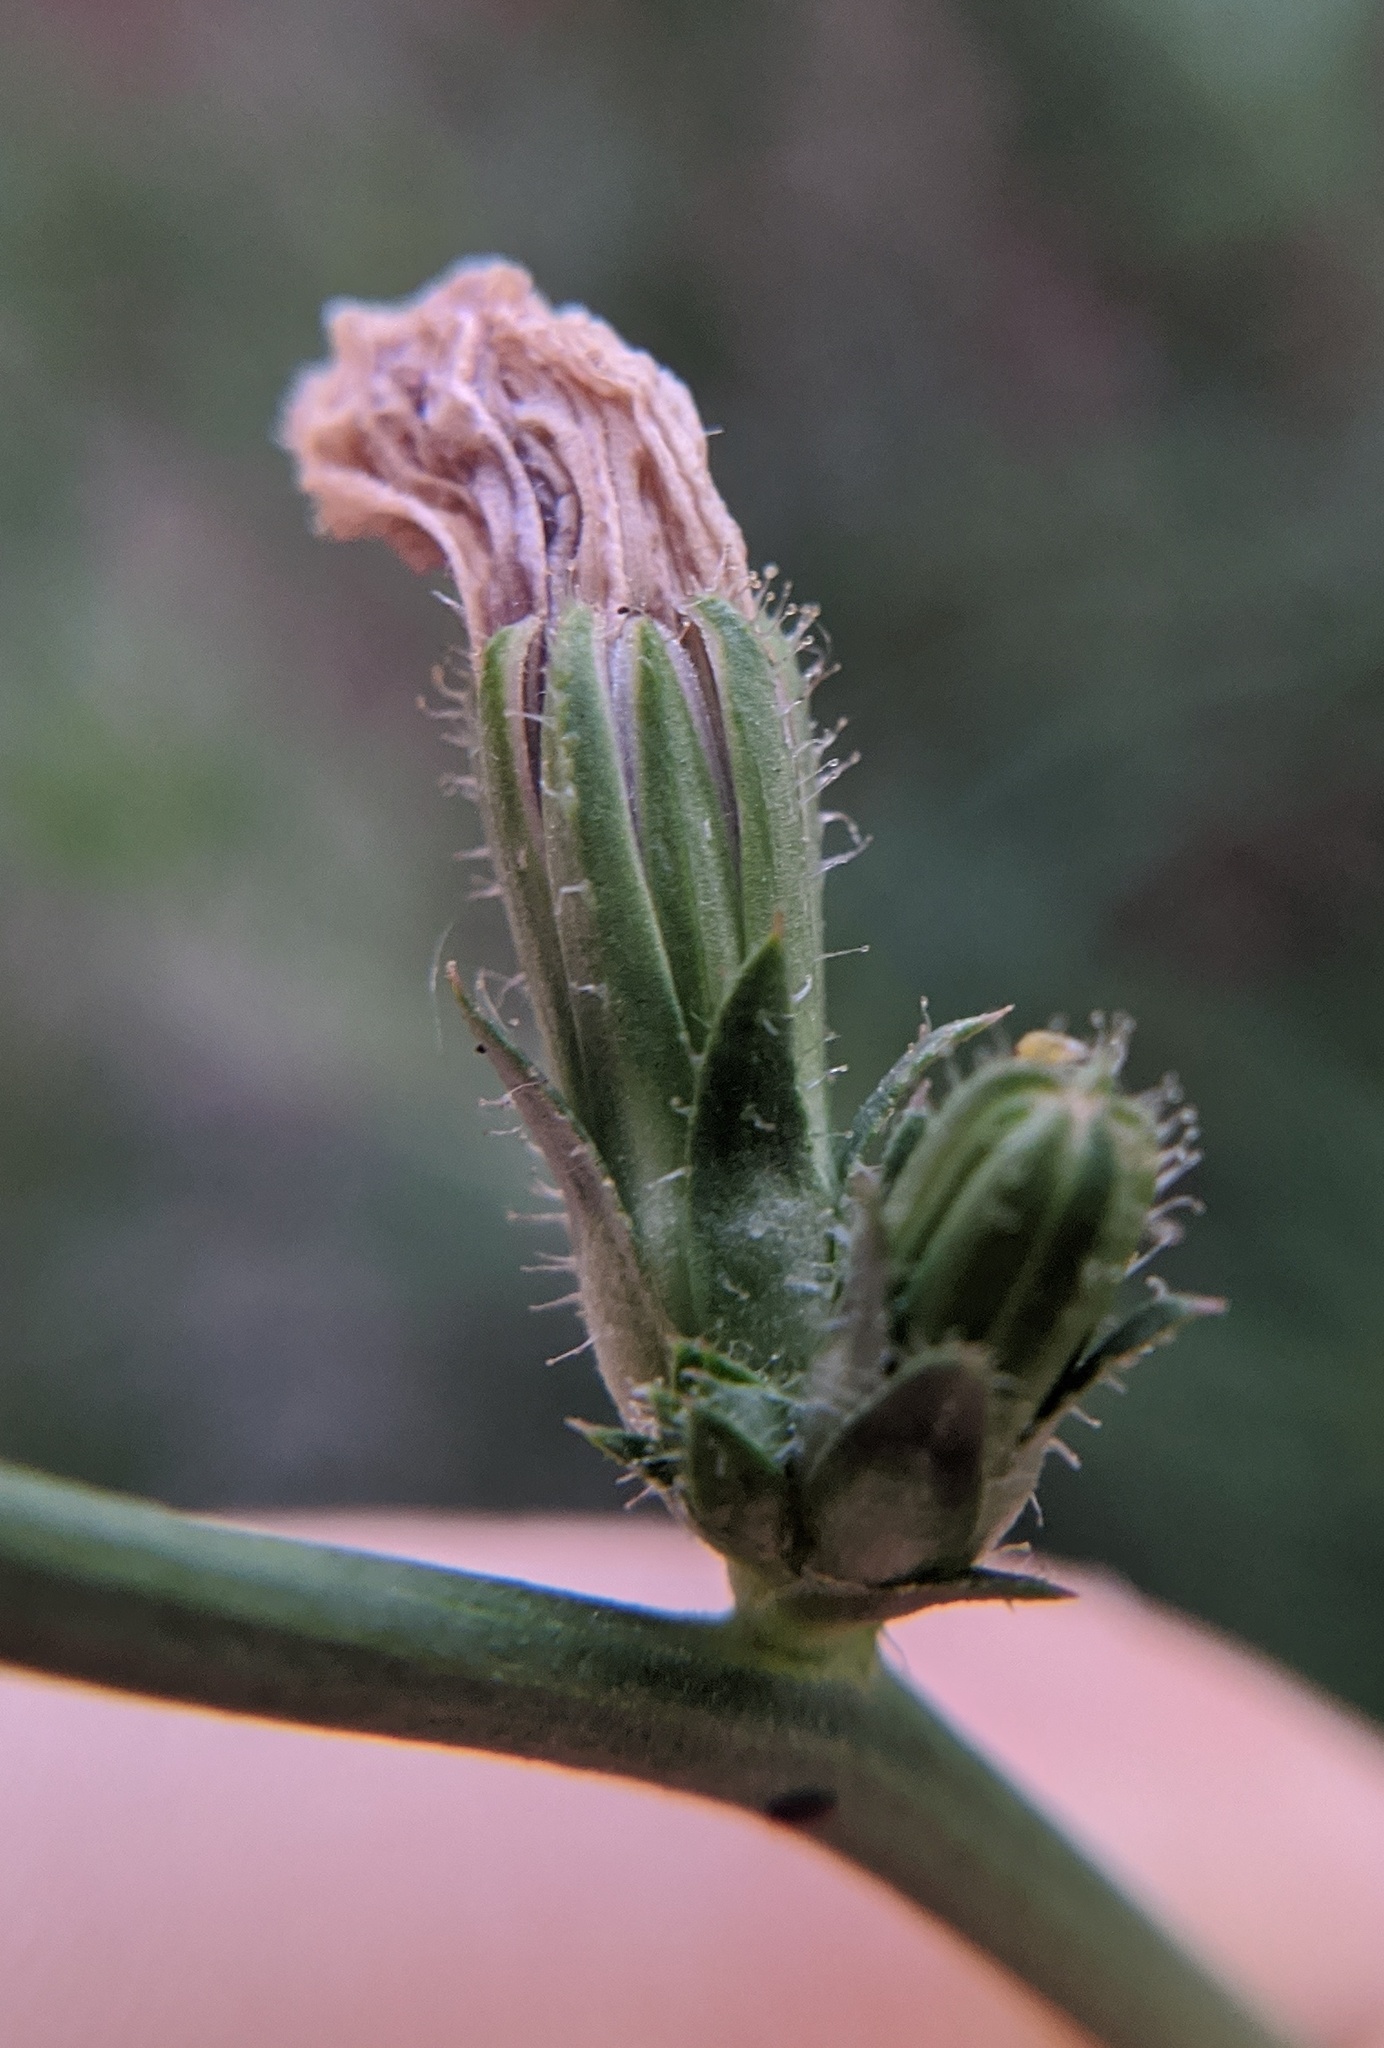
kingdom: Plantae
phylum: Tracheophyta
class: Magnoliopsida
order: Asterales
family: Asteraceae
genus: Artemisia
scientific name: Artemisia vulgaris
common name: Mugwort
